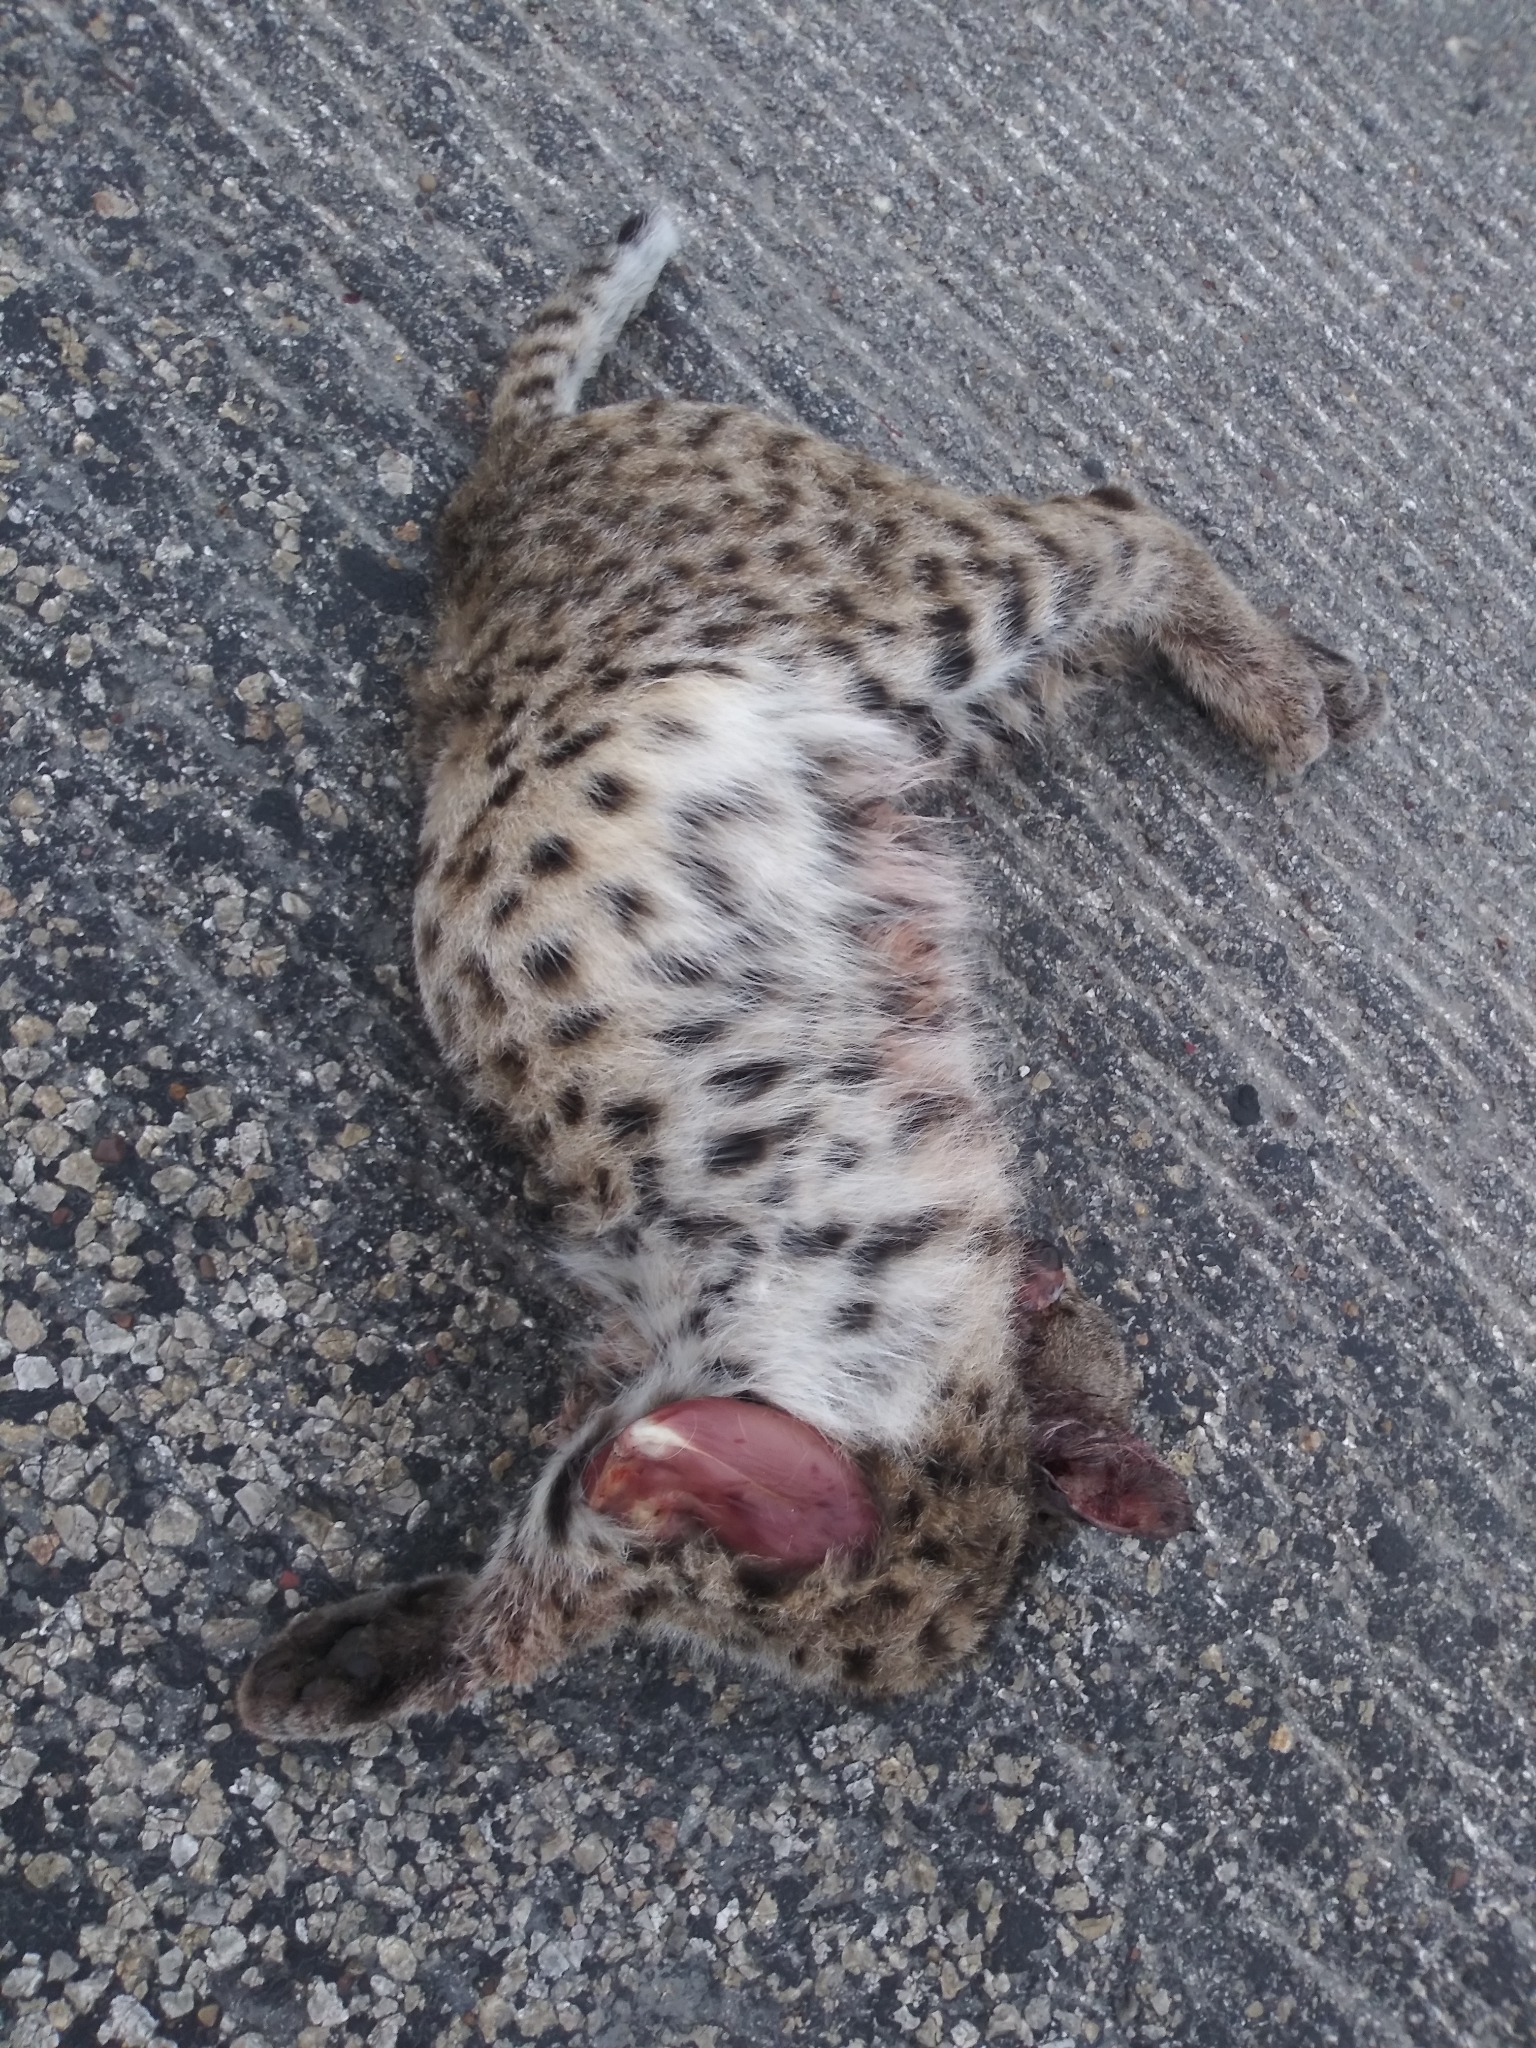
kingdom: Animalia
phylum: Chordata
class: Mammalia
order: Carnivora
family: Felidae
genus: Lynx
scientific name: Lynx rufus
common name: Bobcat
